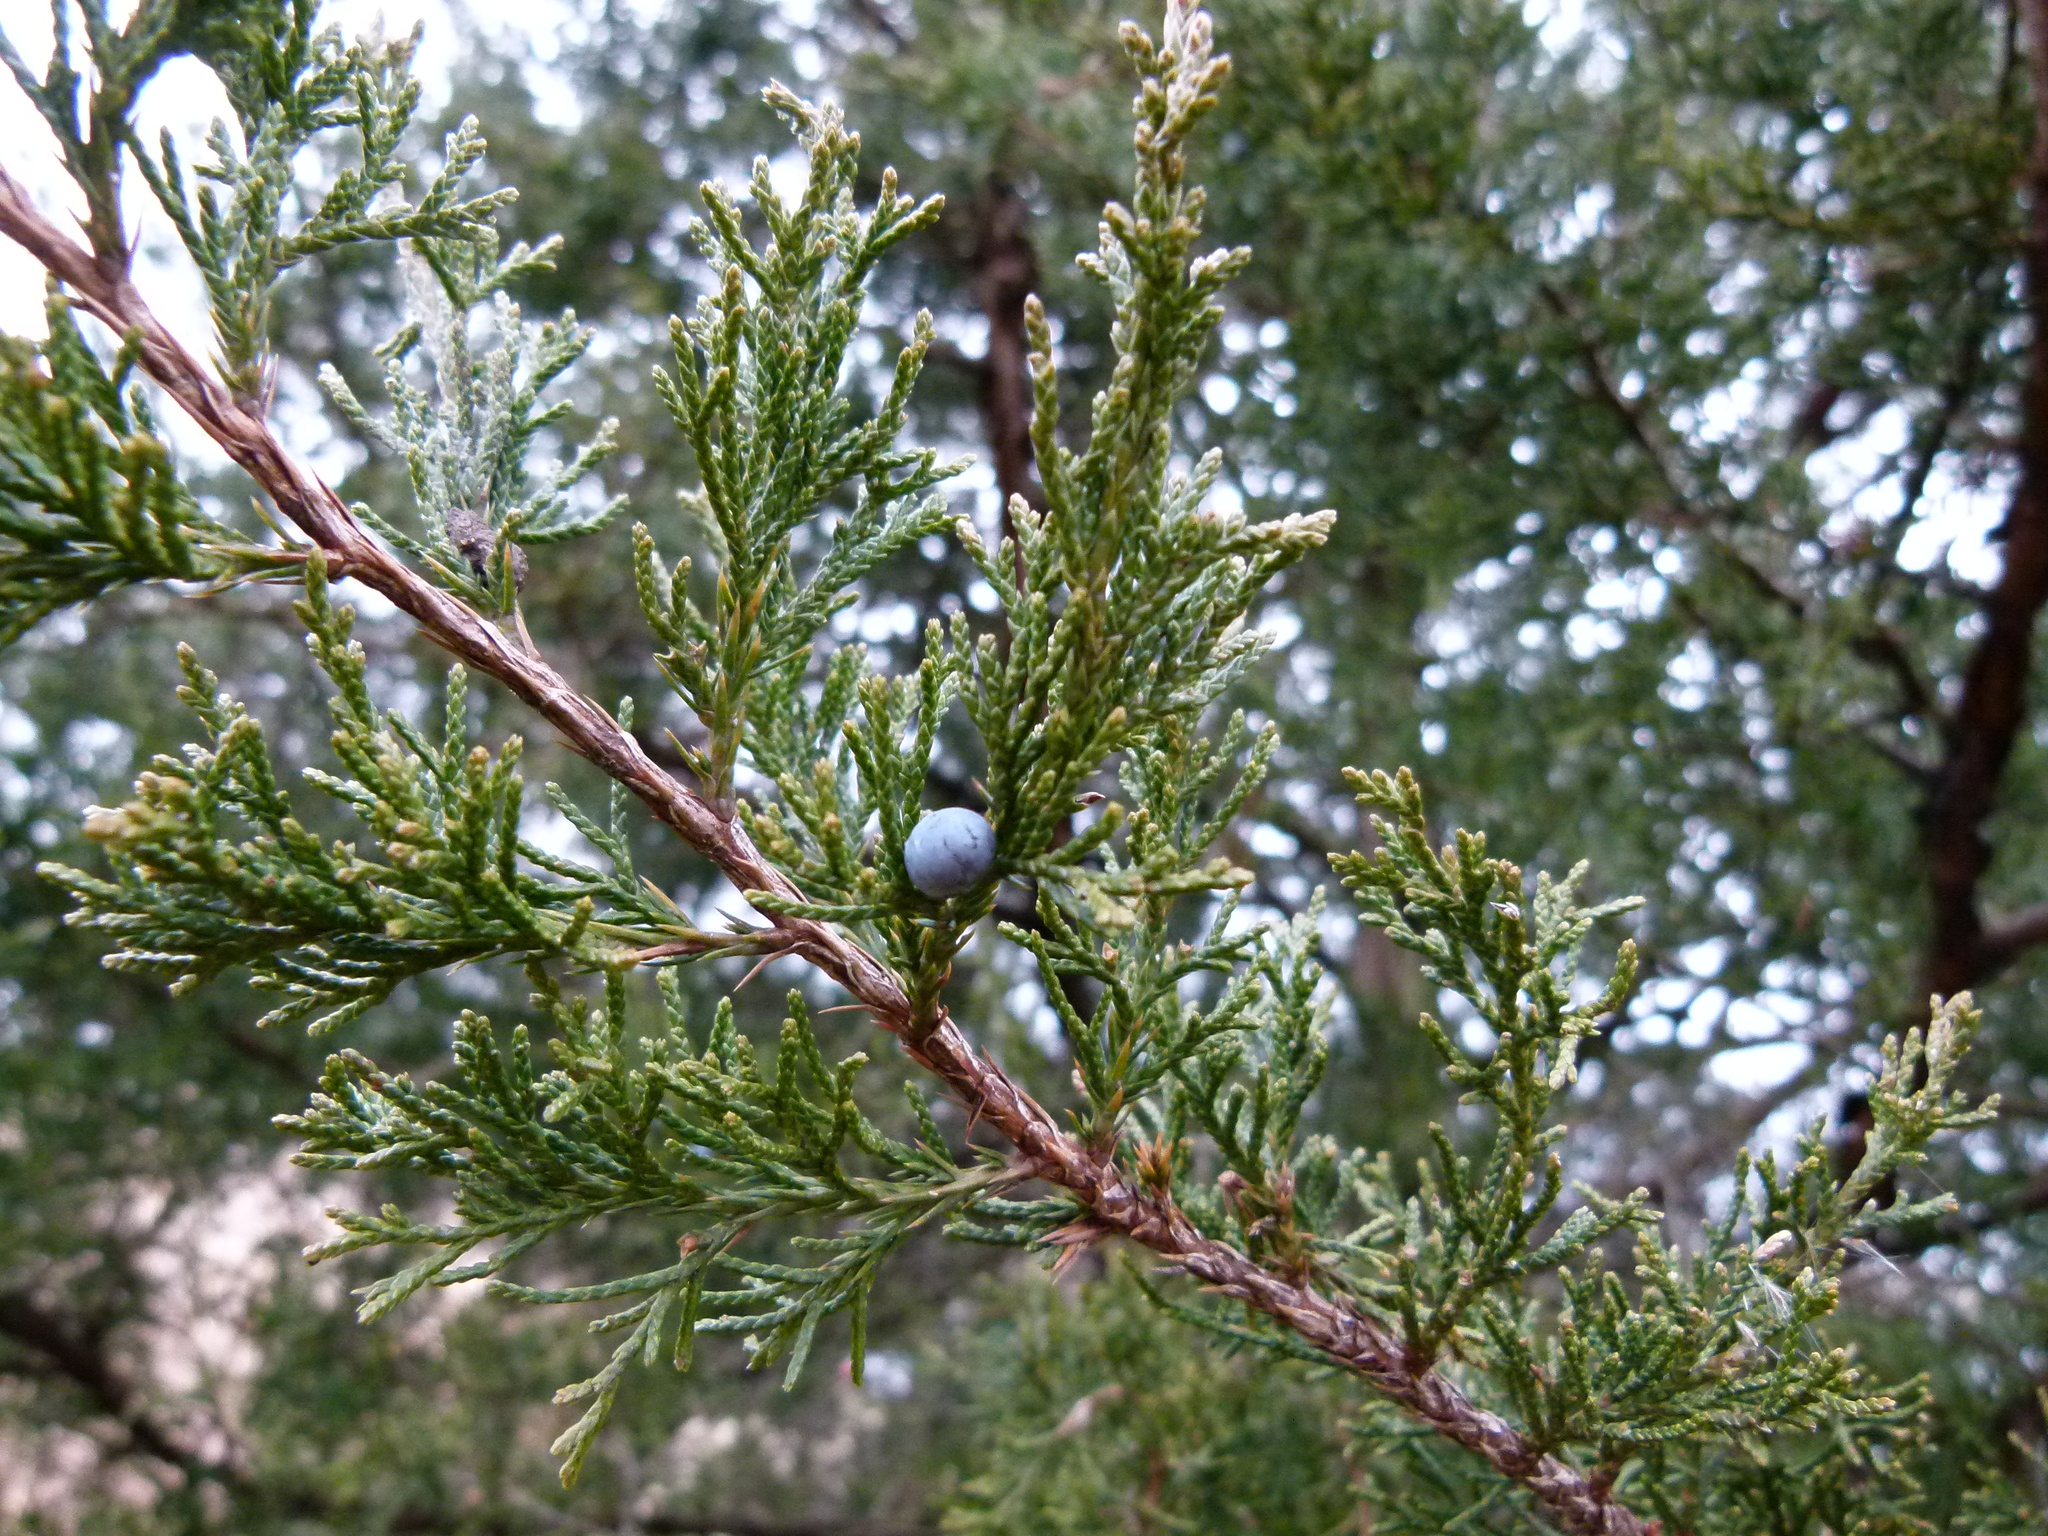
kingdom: Plantae
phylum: Tracheophyta
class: Pinopsida
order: Pinales
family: Cupressaceae
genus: Juniperus
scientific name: Juniperus virginiana
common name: Red juniper
